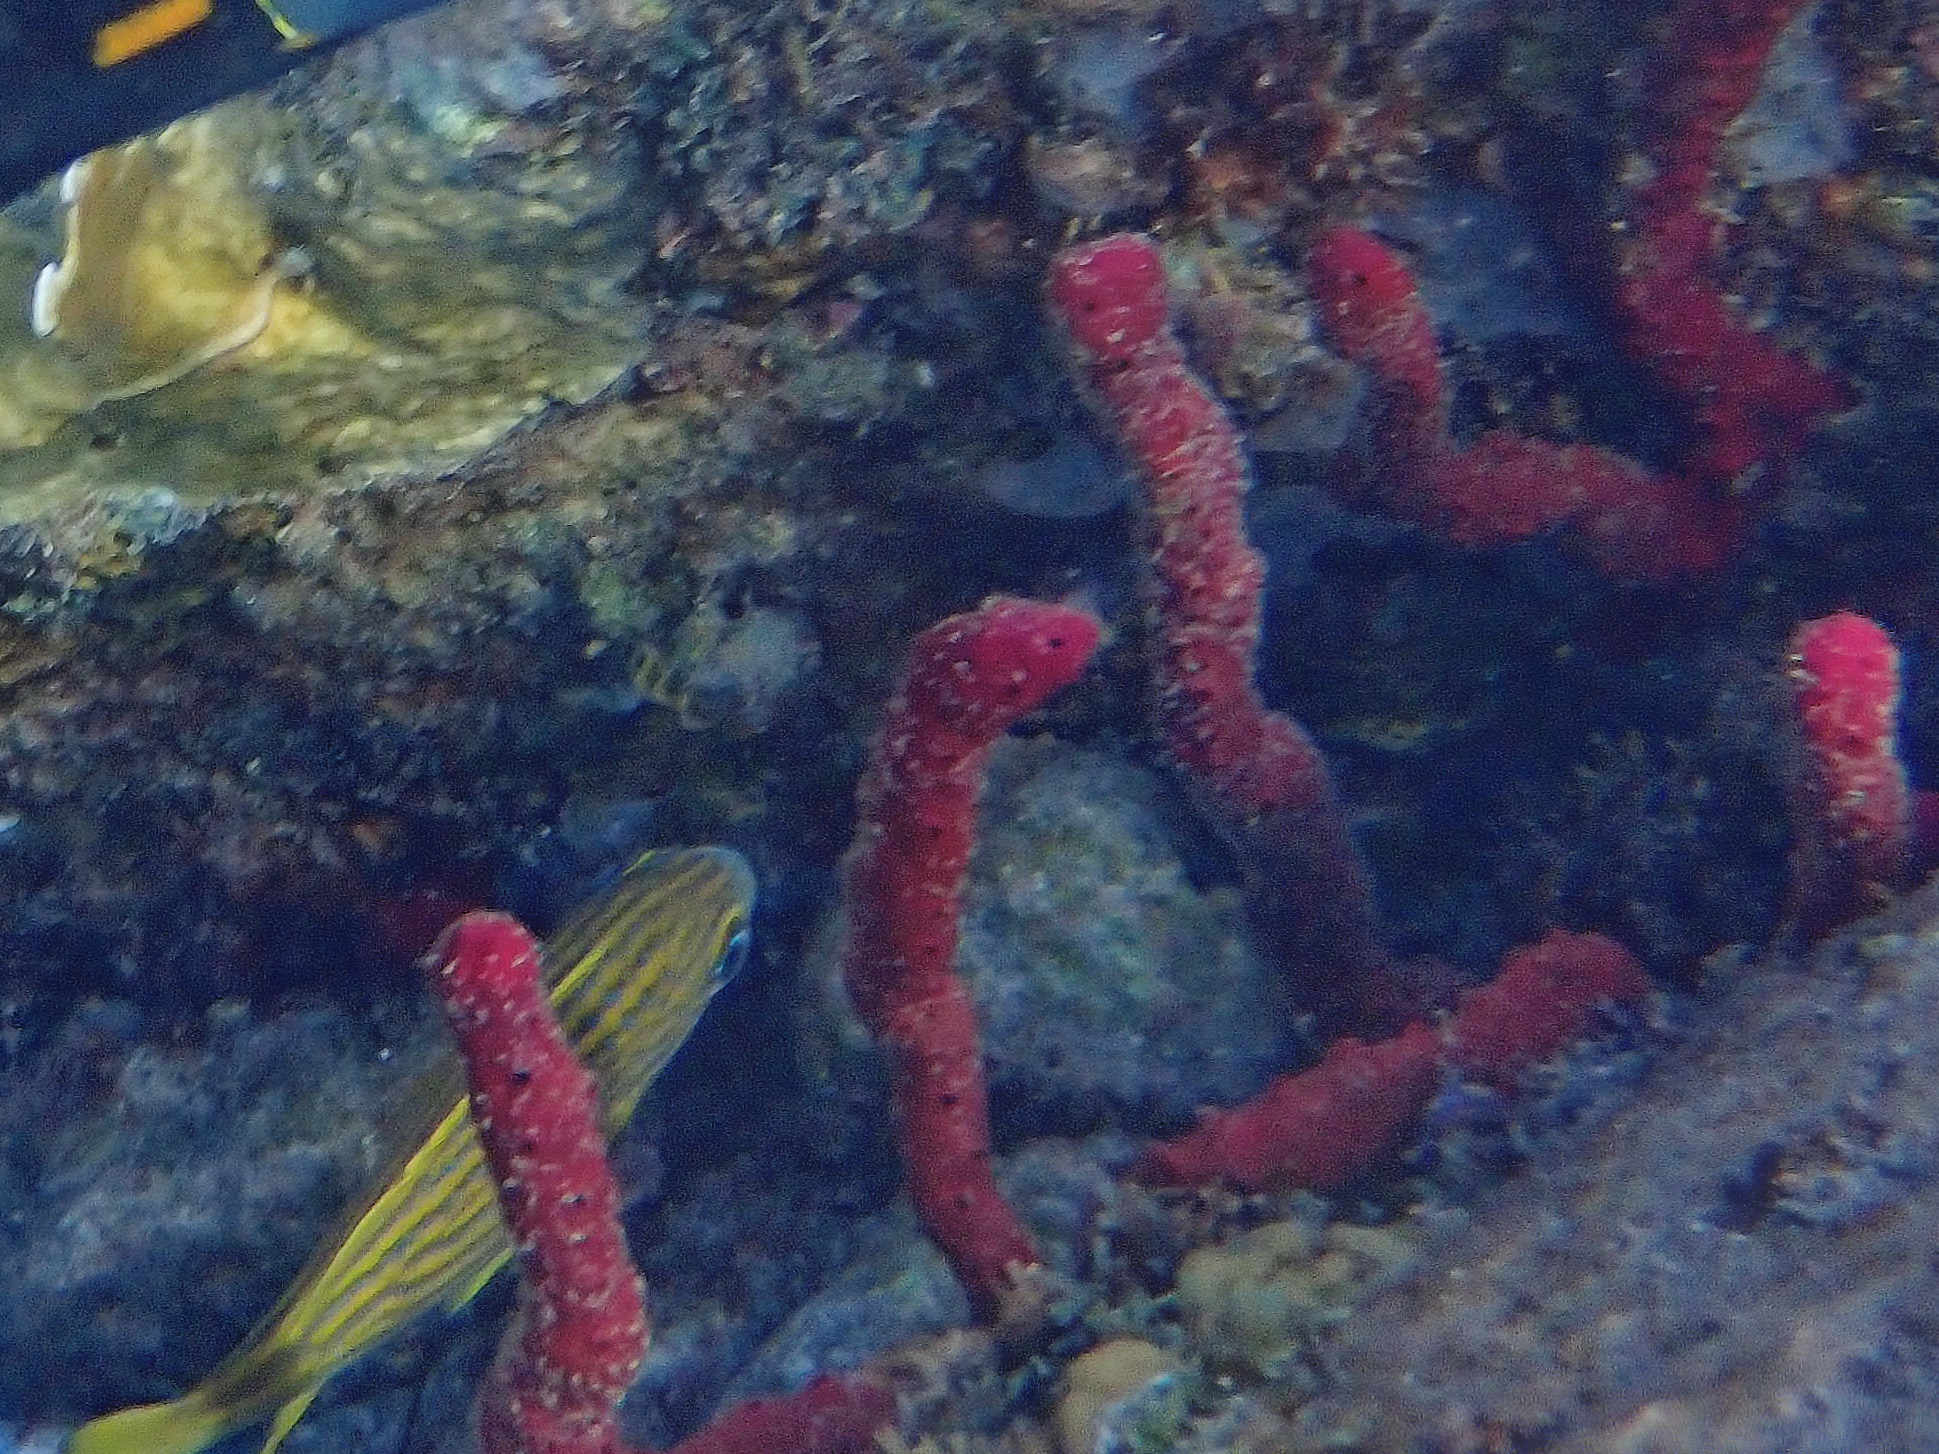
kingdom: Animalia
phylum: Porifera
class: Demospongiae
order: Haplosclerida
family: Niphatidae
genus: Amphimedon
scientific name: Amphimedon compressa
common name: Red sponge
